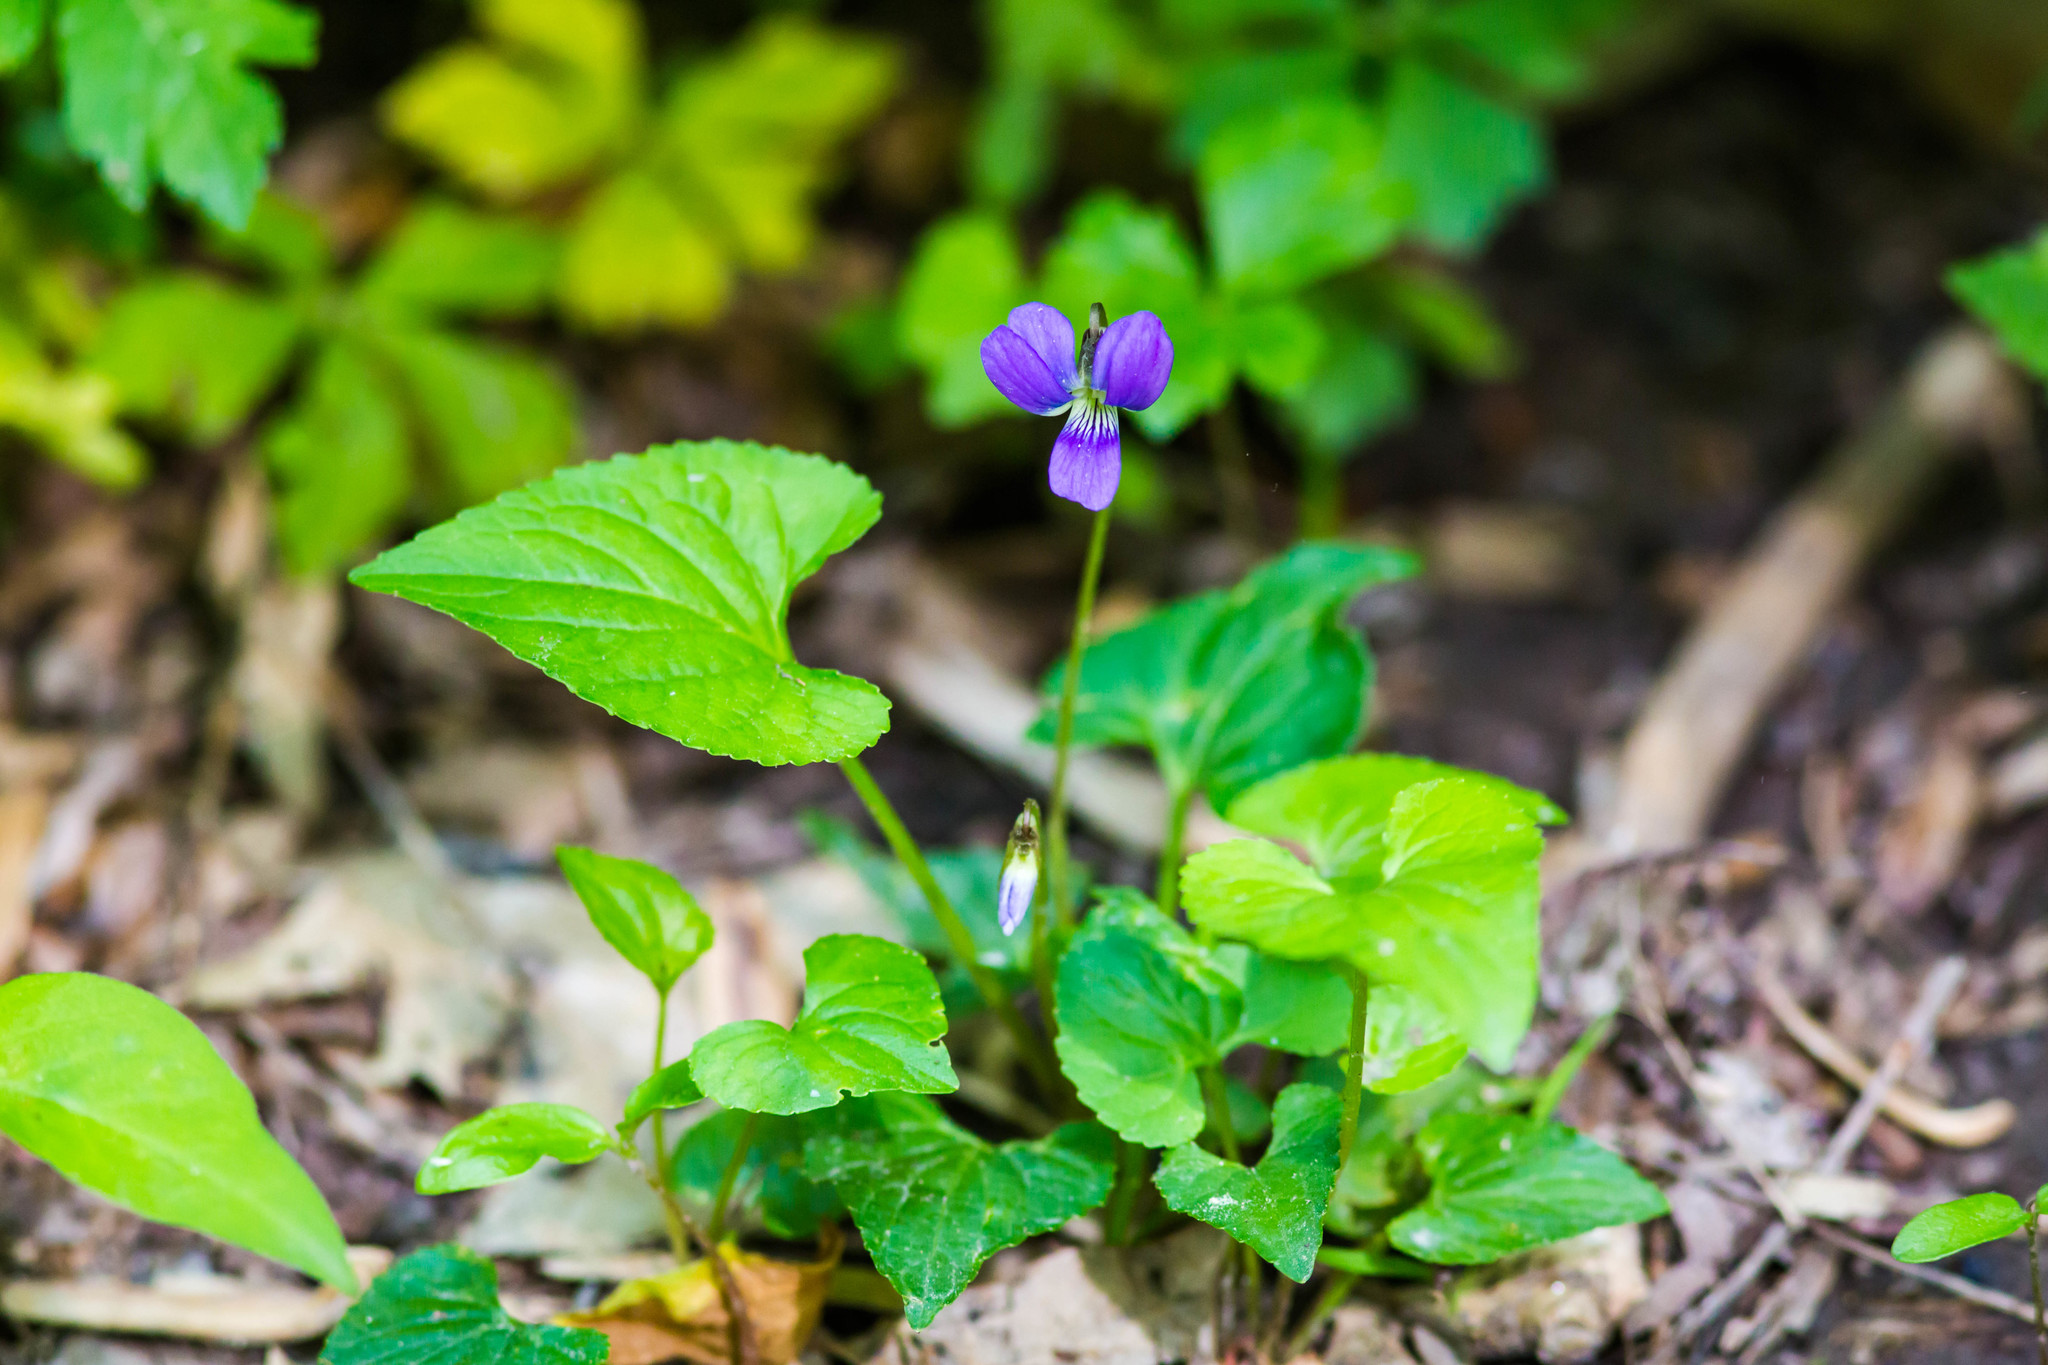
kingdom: Plantae
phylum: Tracheophyta
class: Magnoliopsida
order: Malpighiales
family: Violaceae
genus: Viola
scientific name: Viola sororia
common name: Dooryard violet
